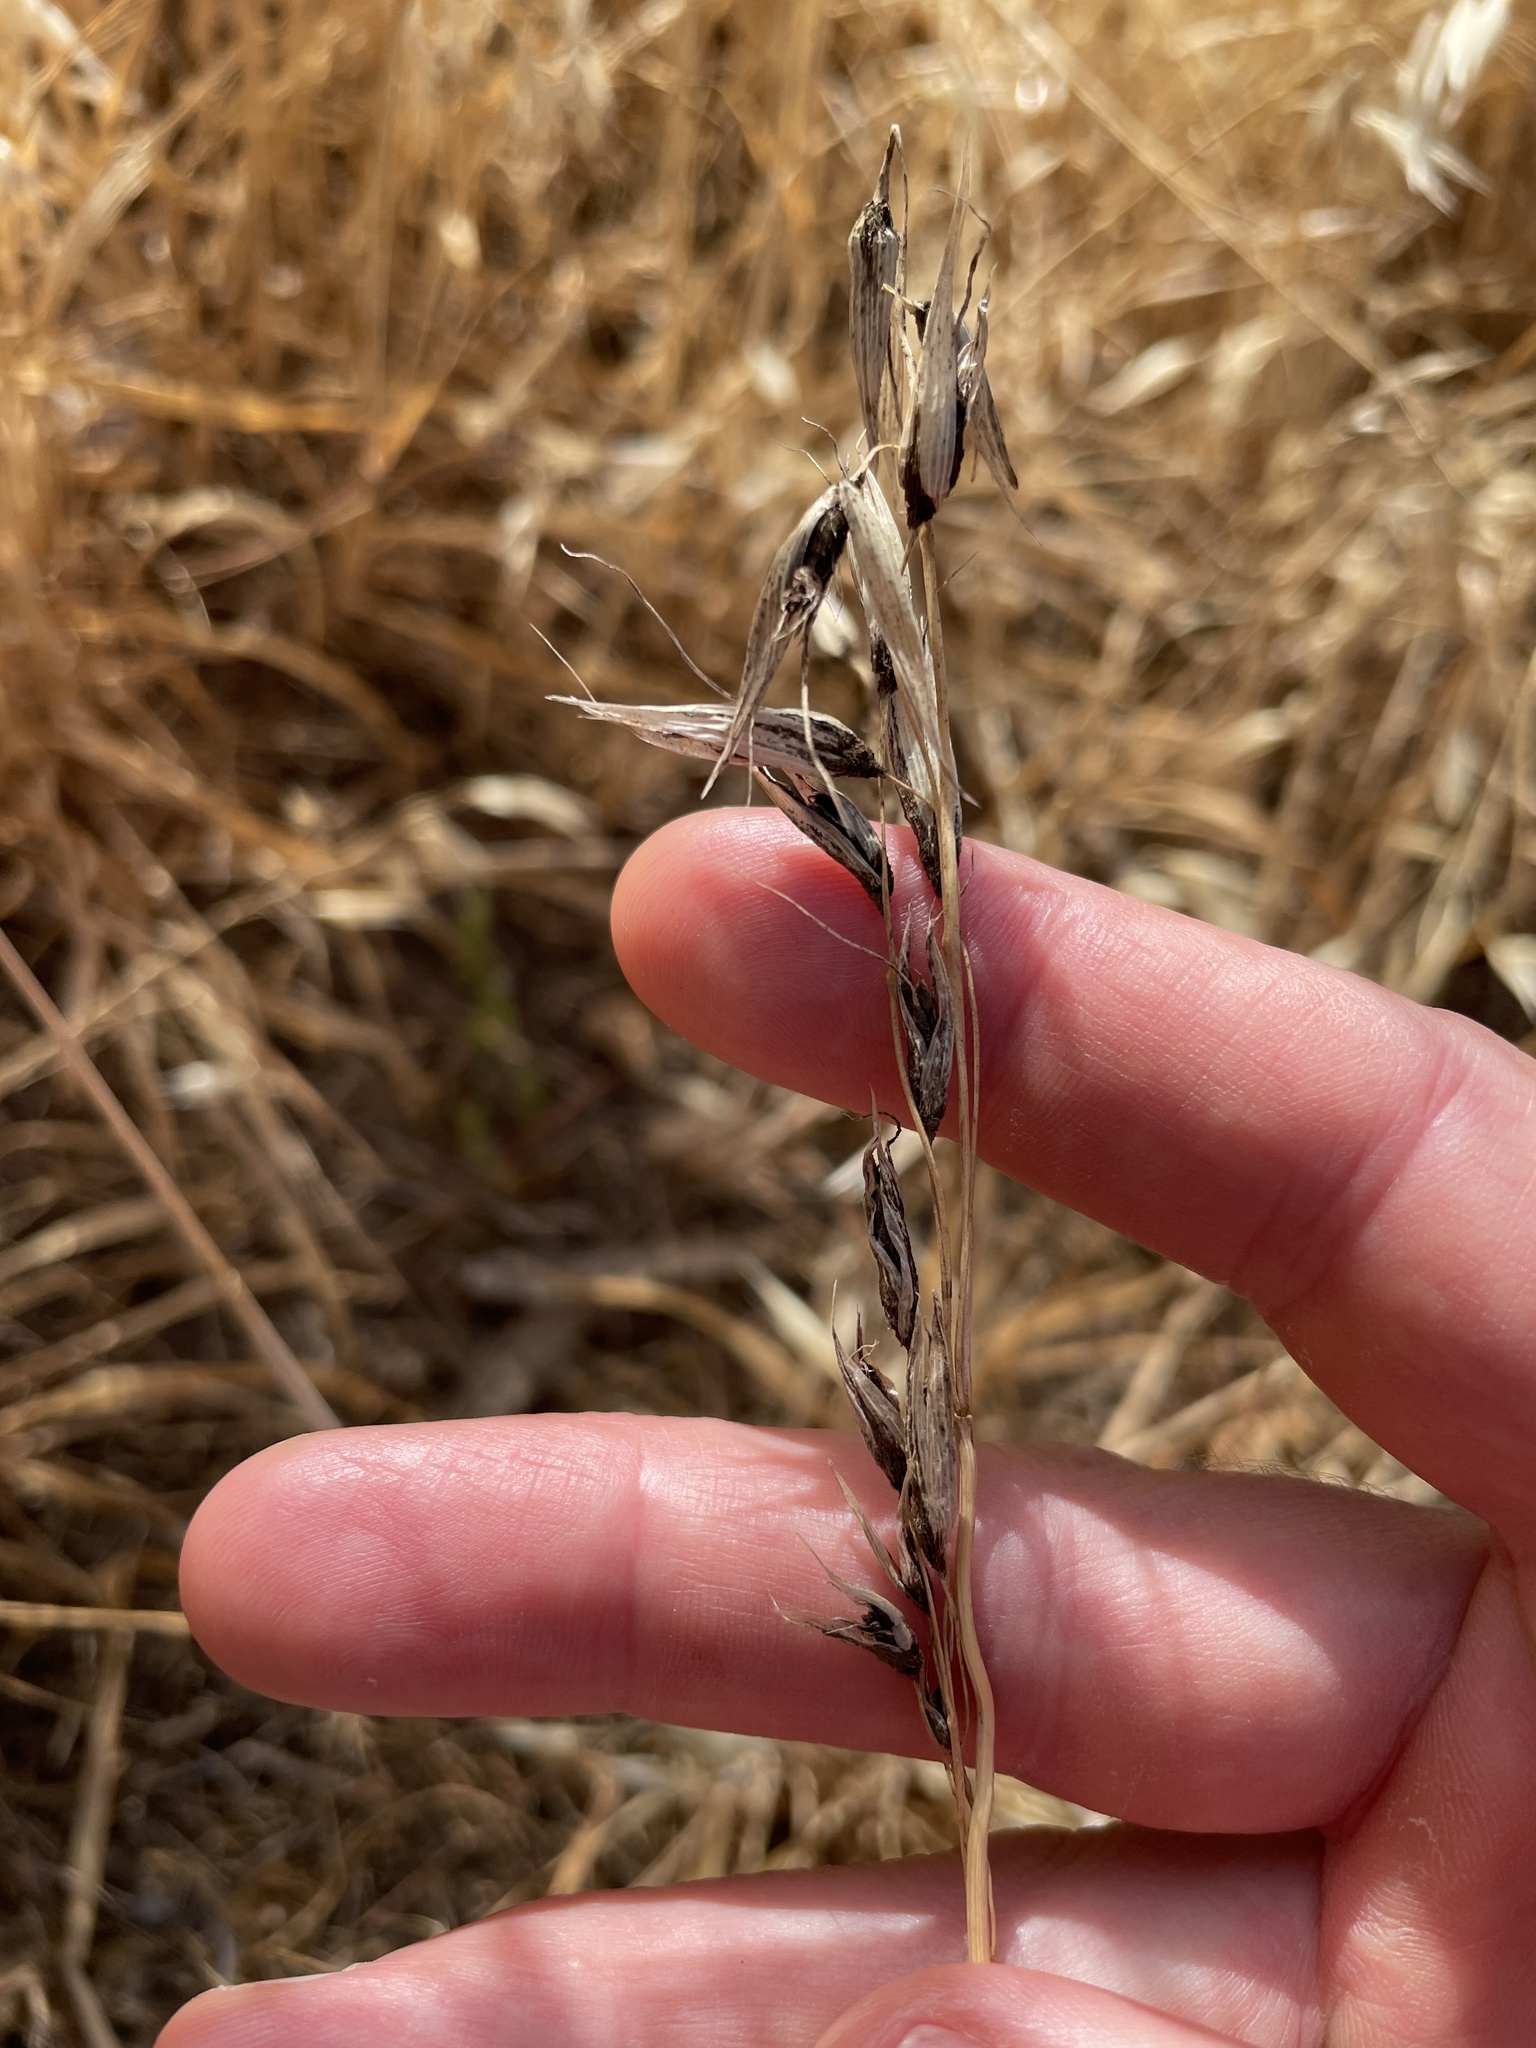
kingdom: Fungi
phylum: Basidiomycota
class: Ustilaginomycetes
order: Ustilaginales
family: Ustilaginaceae
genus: Ustilago
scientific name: Ustilago avenae
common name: Loose smut of oats & oat grass
